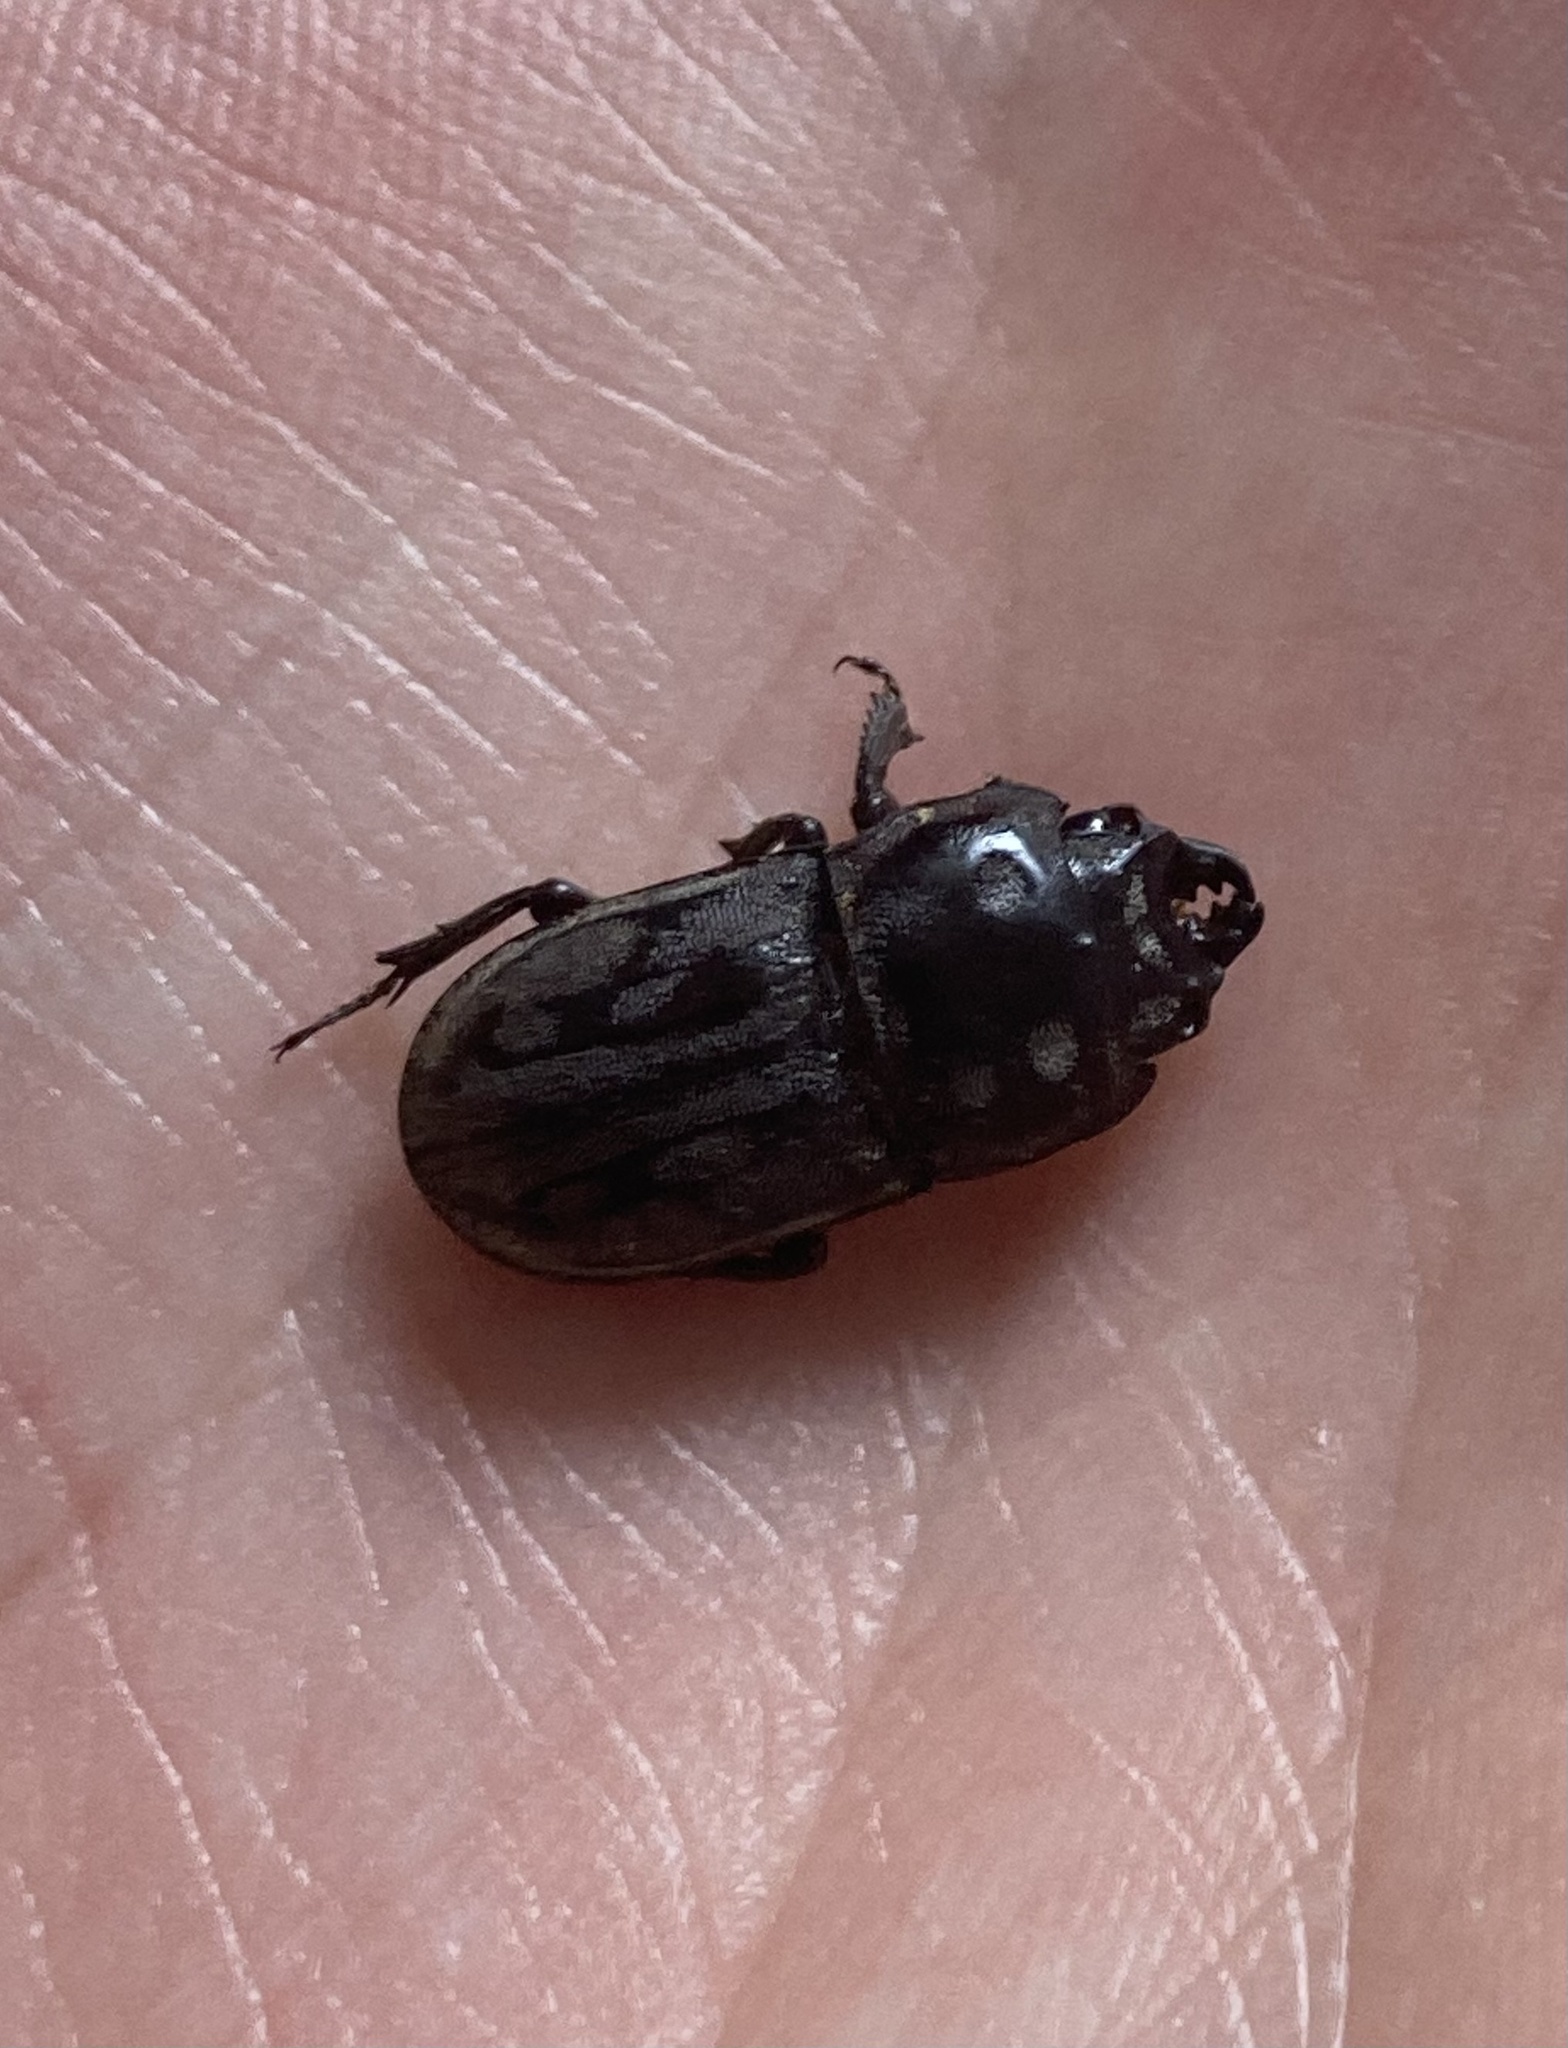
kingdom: Animalia
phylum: Arthropoda
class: Insecta
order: Coleoptera
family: Lucanidae
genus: Paralissotes
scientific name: Paralissotes reticulatus
